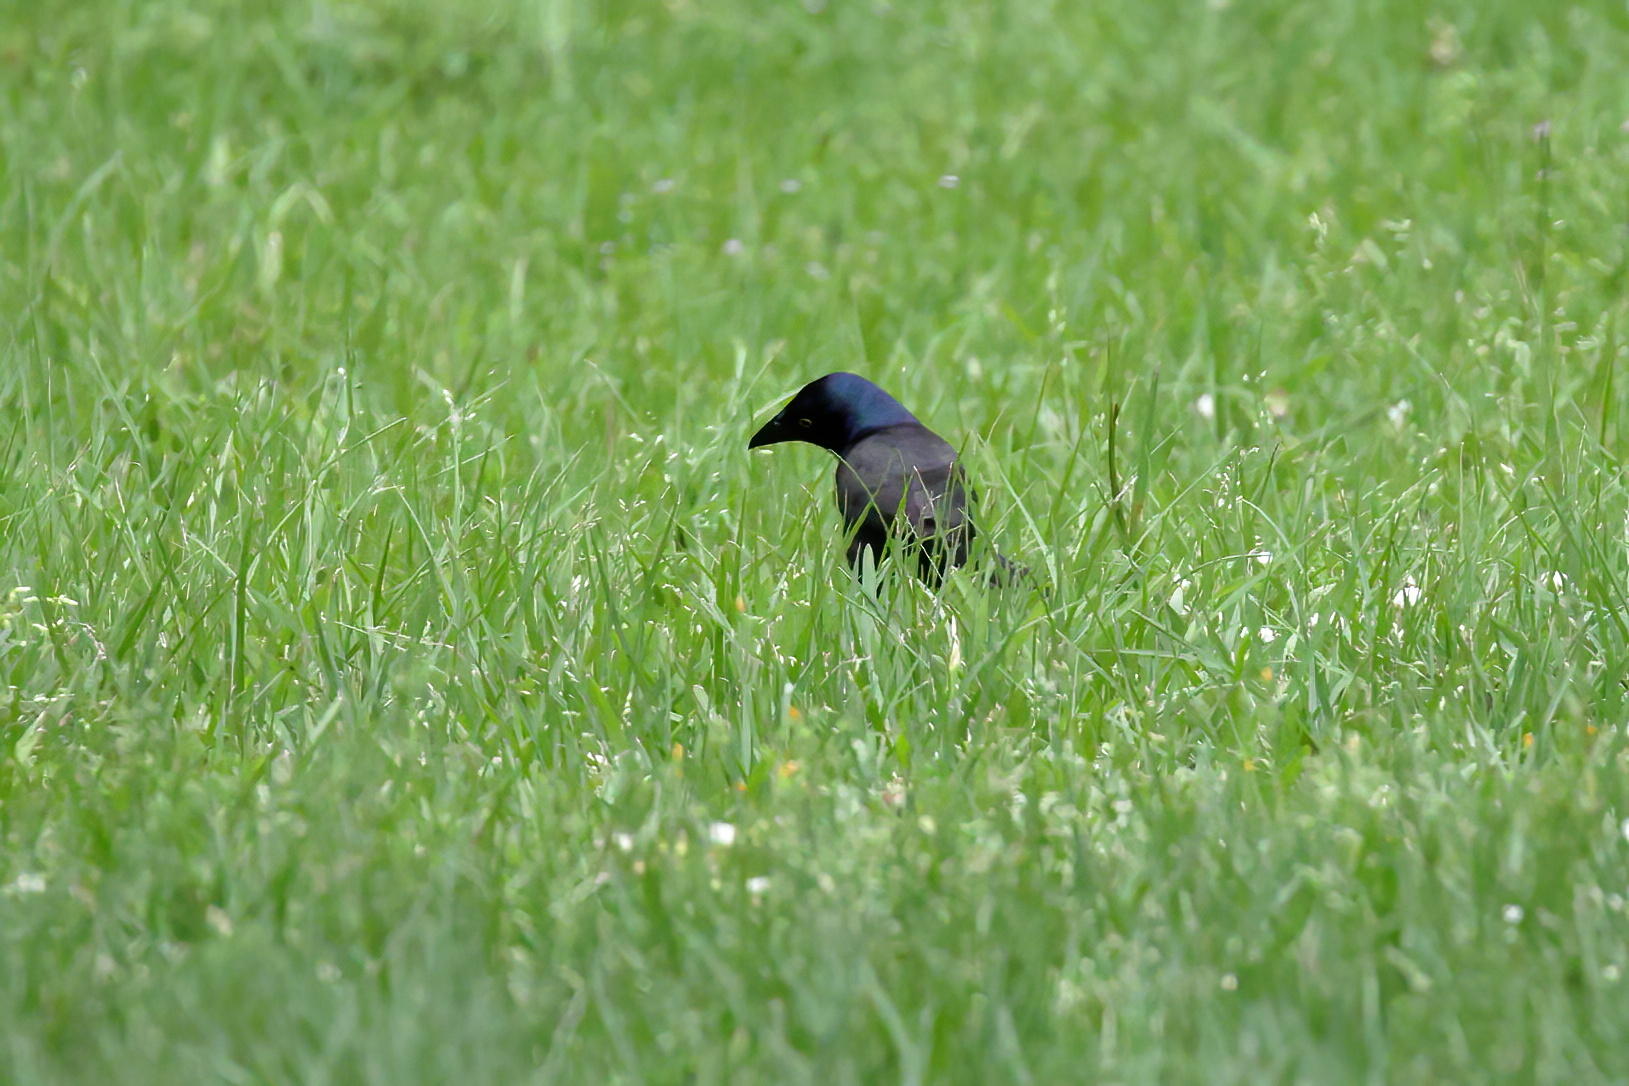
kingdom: Animalia
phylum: Chordata
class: Aves
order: Passeriformes
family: Icteridae
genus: Quiscalus
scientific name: Quiscalus quiscula
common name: Common grackle
